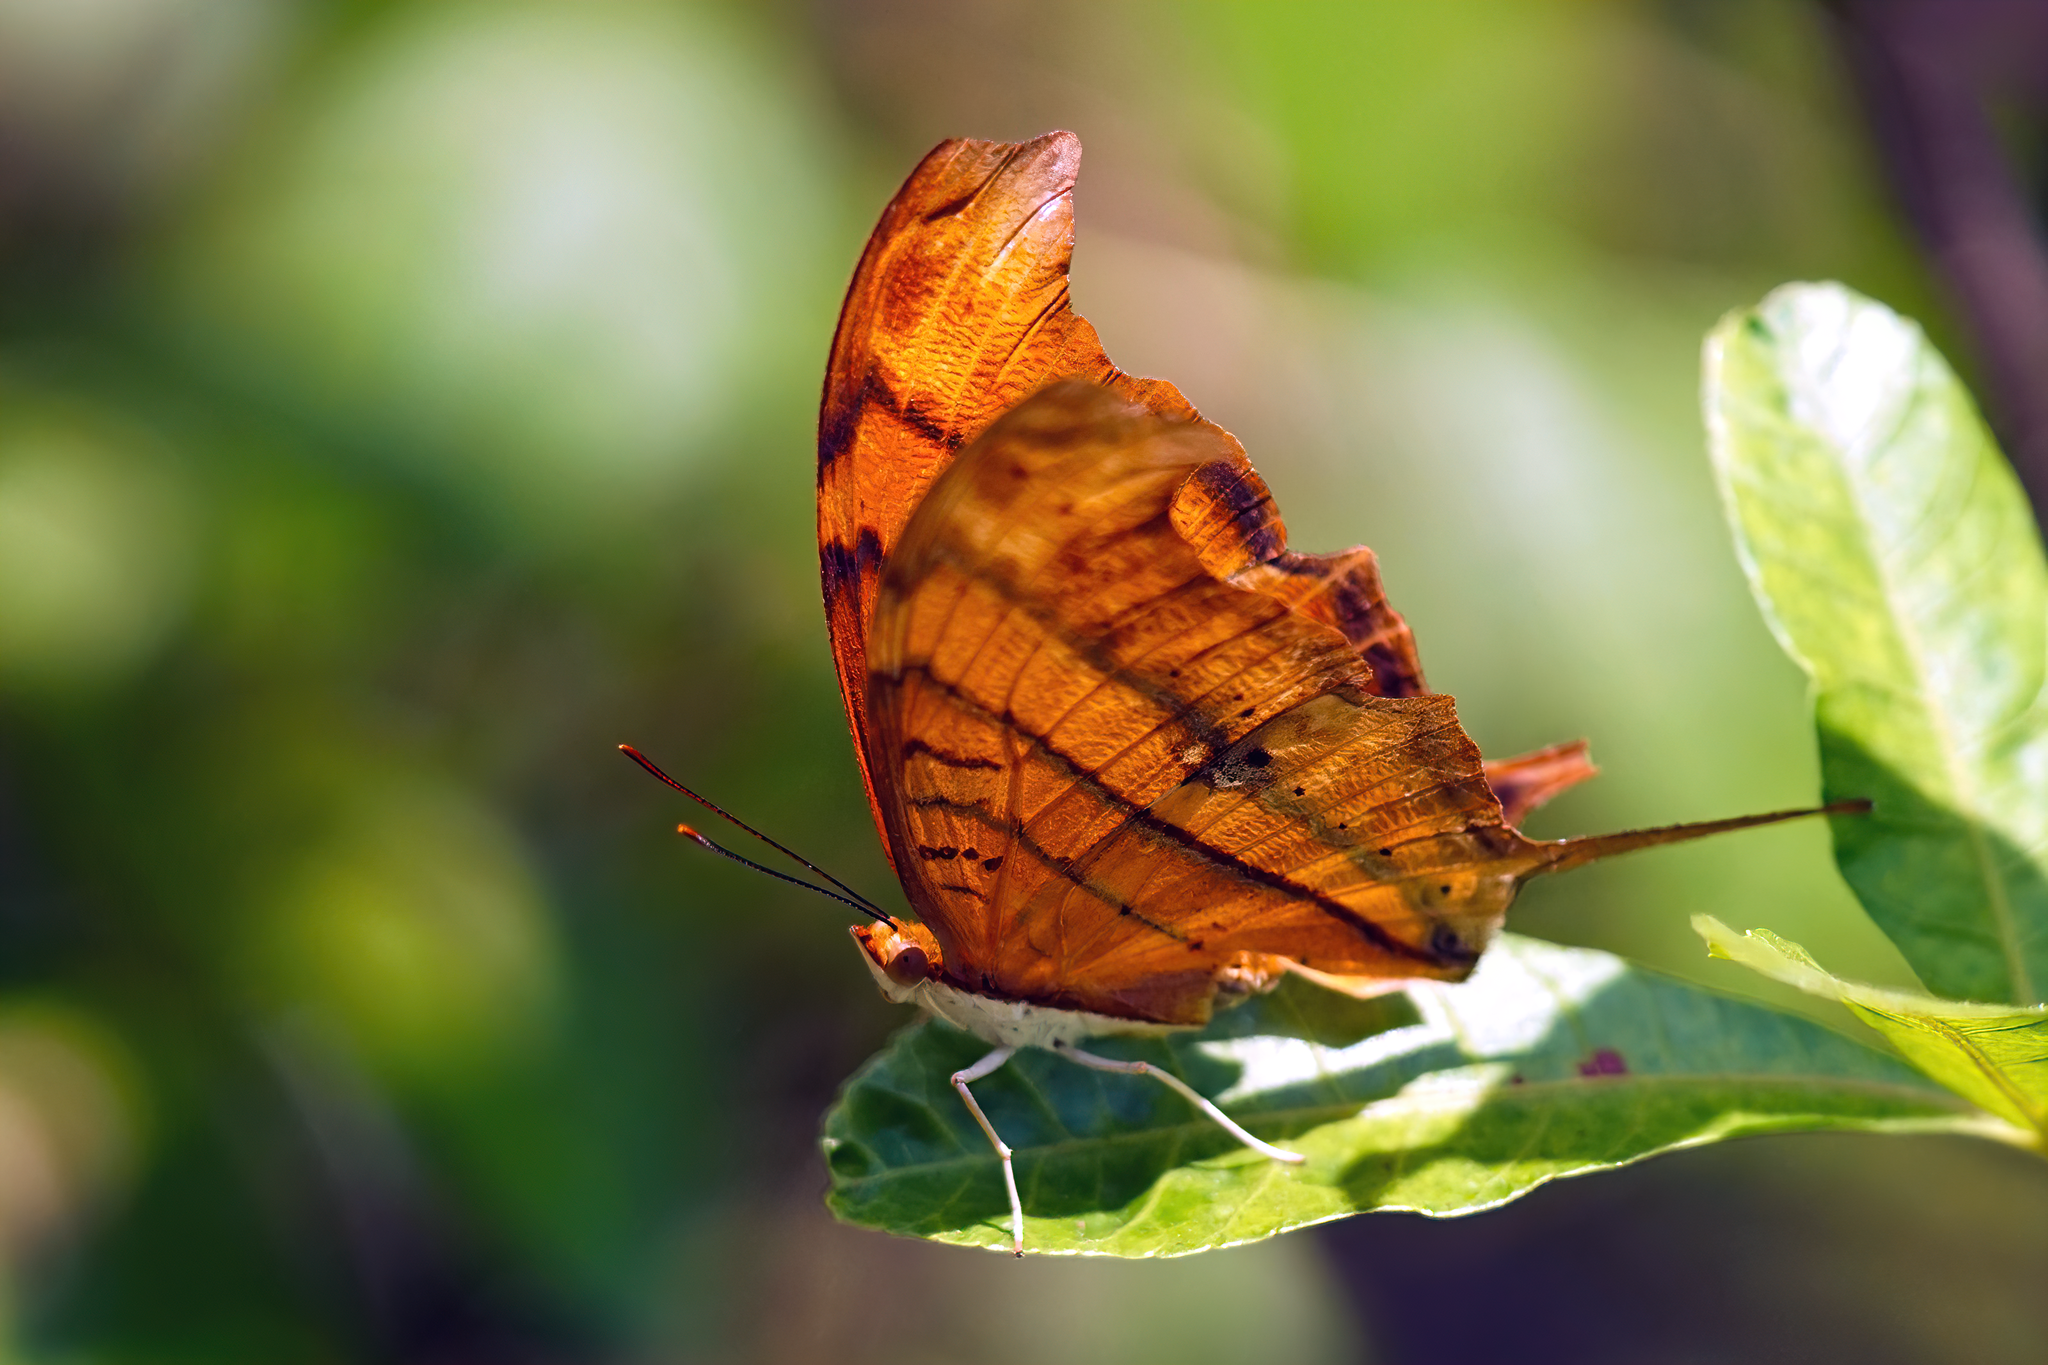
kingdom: Animalia
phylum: Arthropoda
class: Insecta
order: Lepidoptera
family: Nymphalidae
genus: Marpesia
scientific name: Marpesia petreus
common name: Red dagger wing
